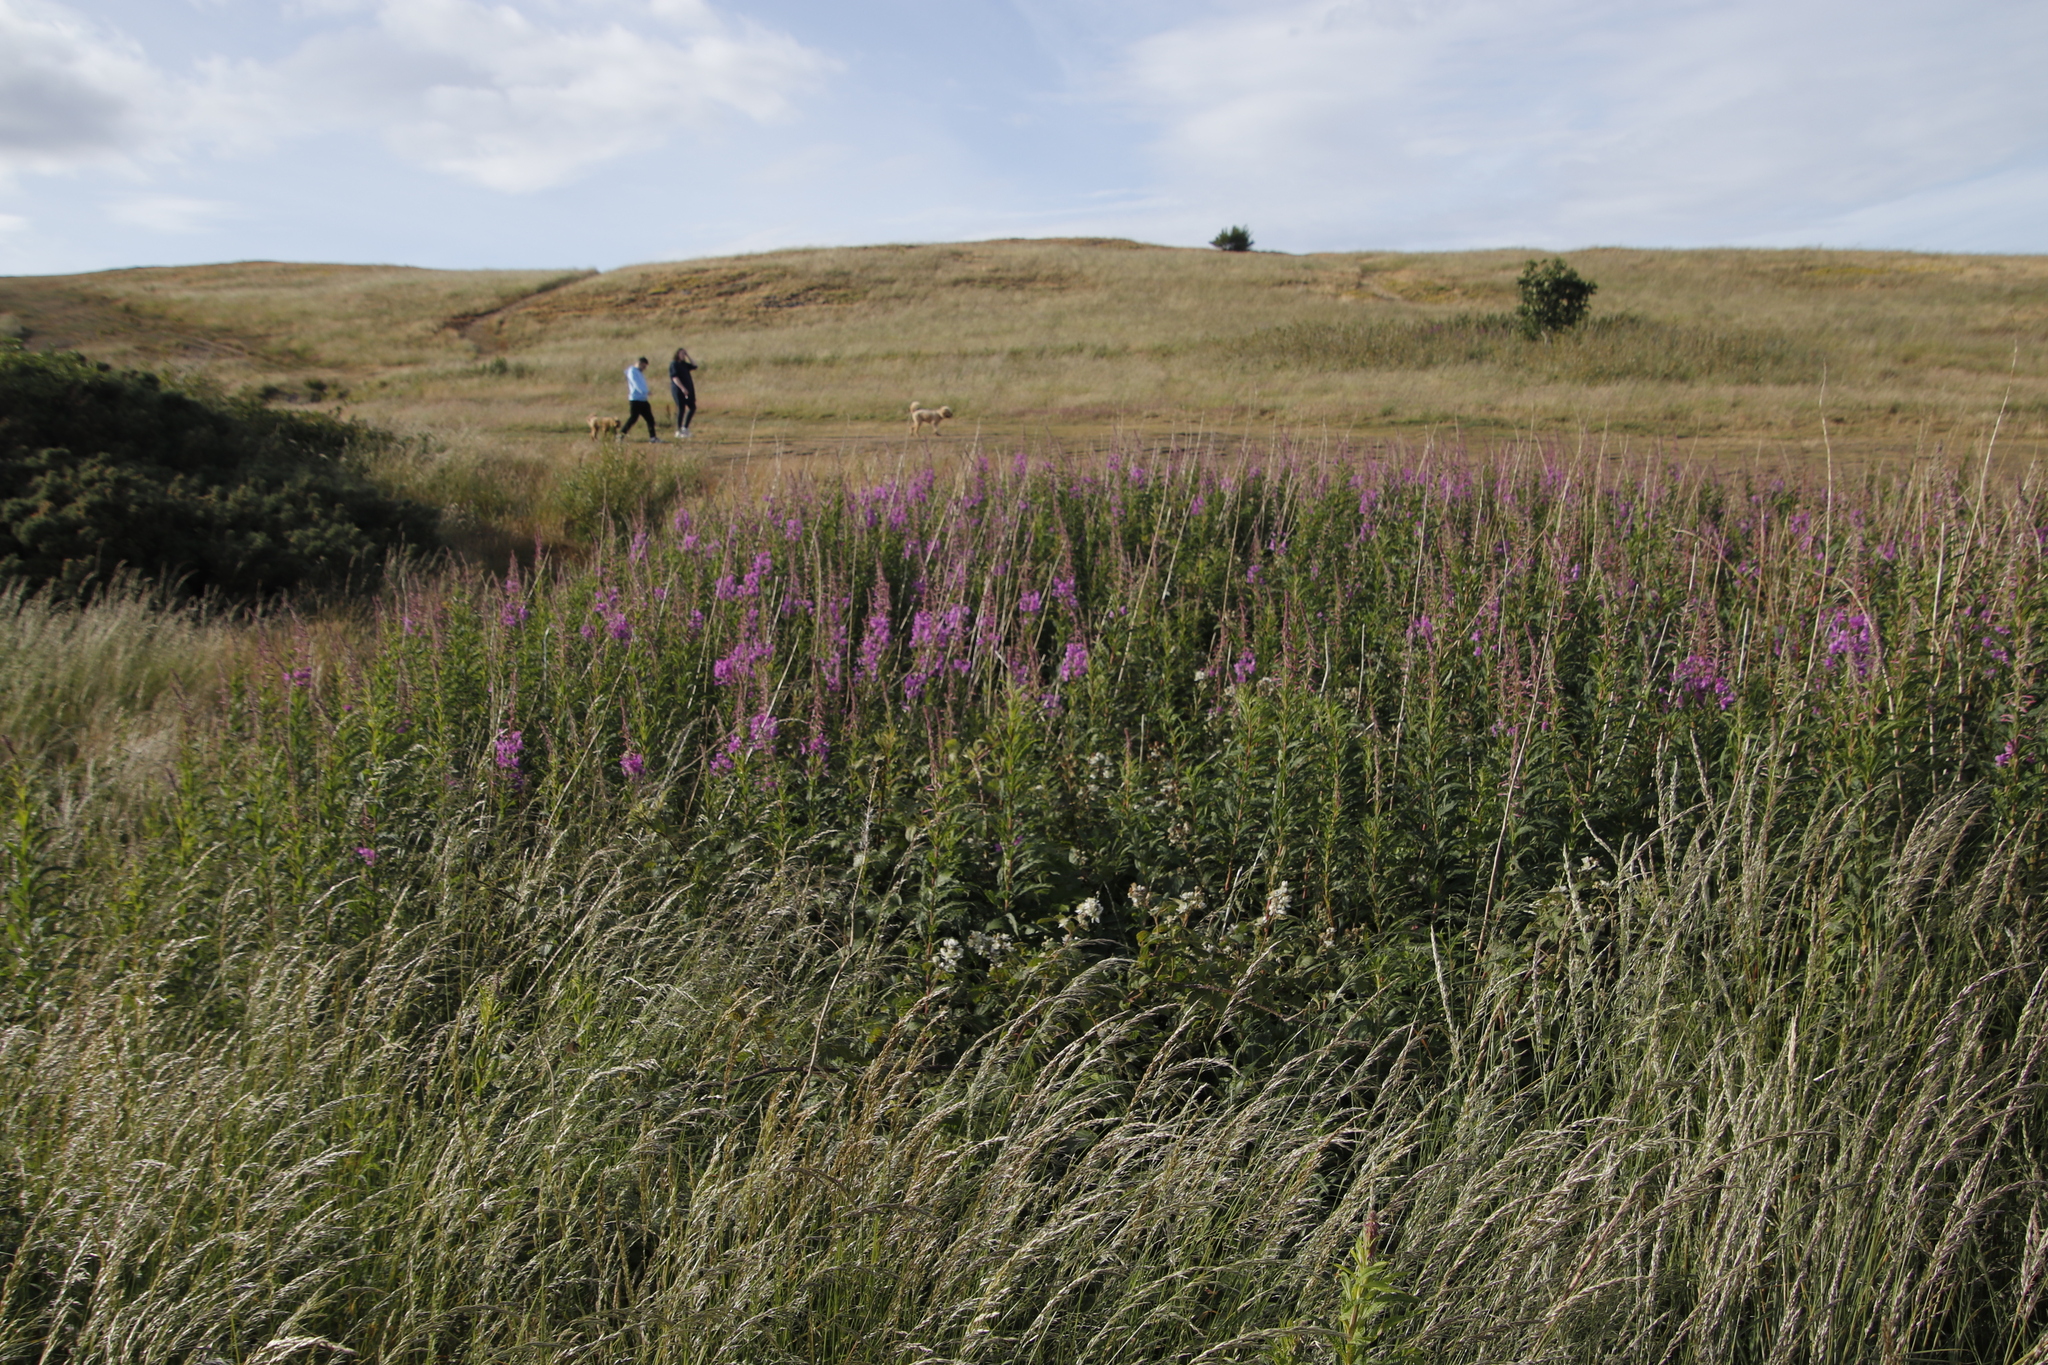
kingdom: Plantae
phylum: Tracheophyta
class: Magnoliopsida
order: Myrtales
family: Onagraceae
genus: Chamaenerion
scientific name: Chamaenerion angustifolium
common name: Fireweed
